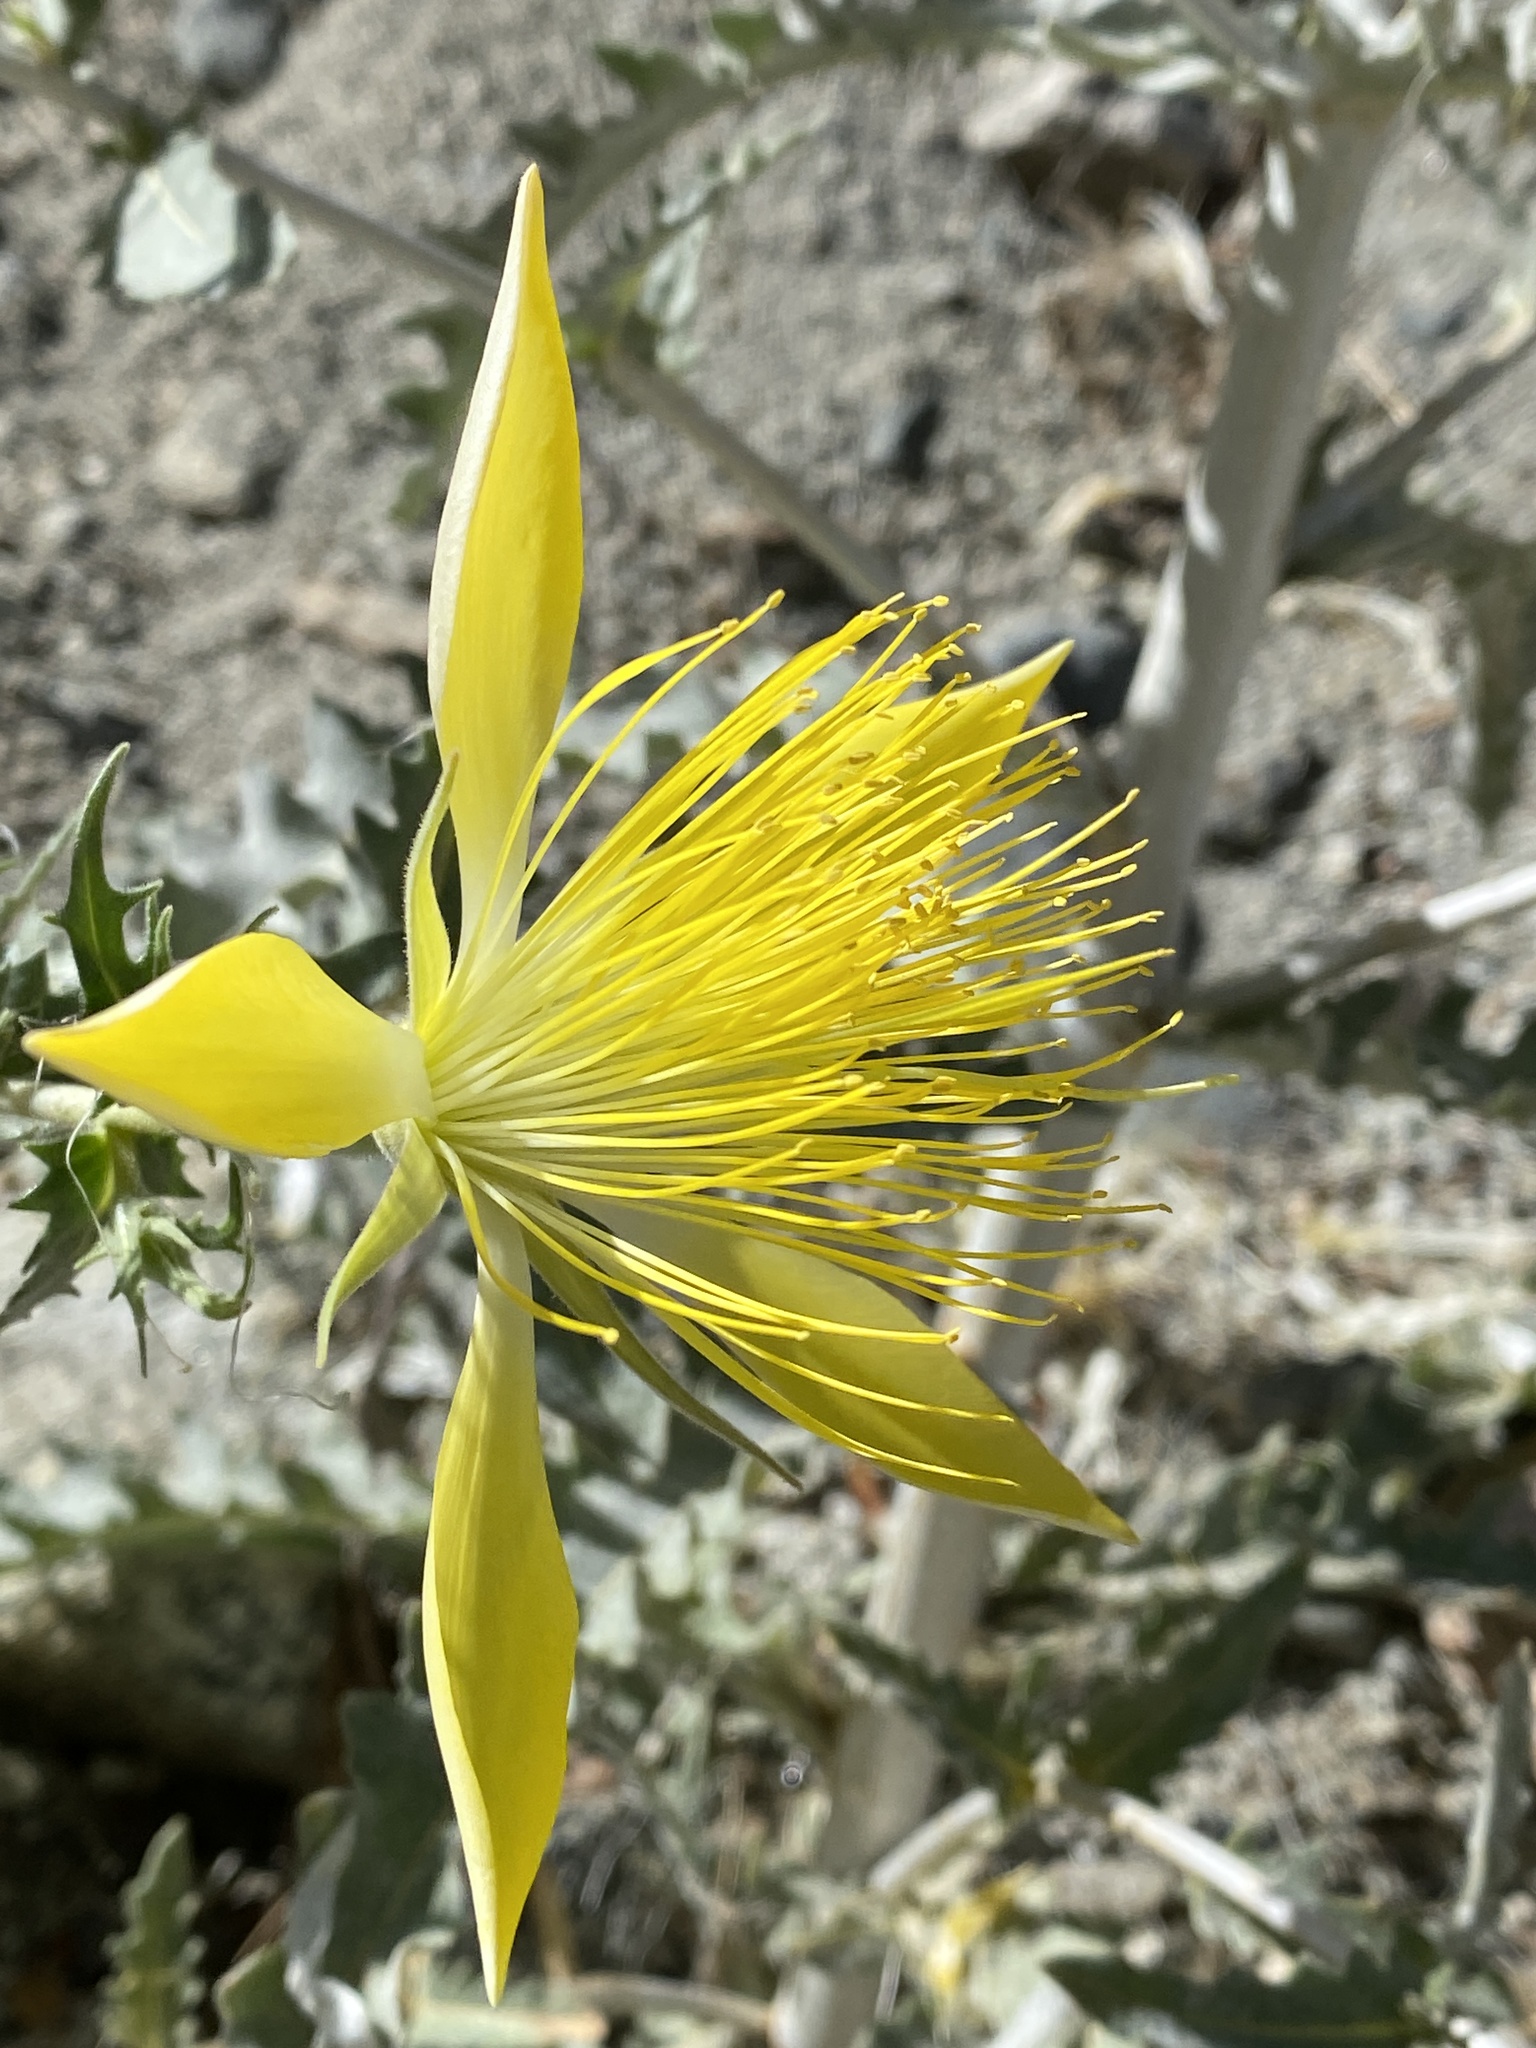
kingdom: Plantae
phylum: Tracheophyta
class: Magnoliopsida
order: Cornales
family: Loasaceae
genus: Mentzelia
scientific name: Mentzelia laevicaulis
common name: Smooth-stem blazingstar
